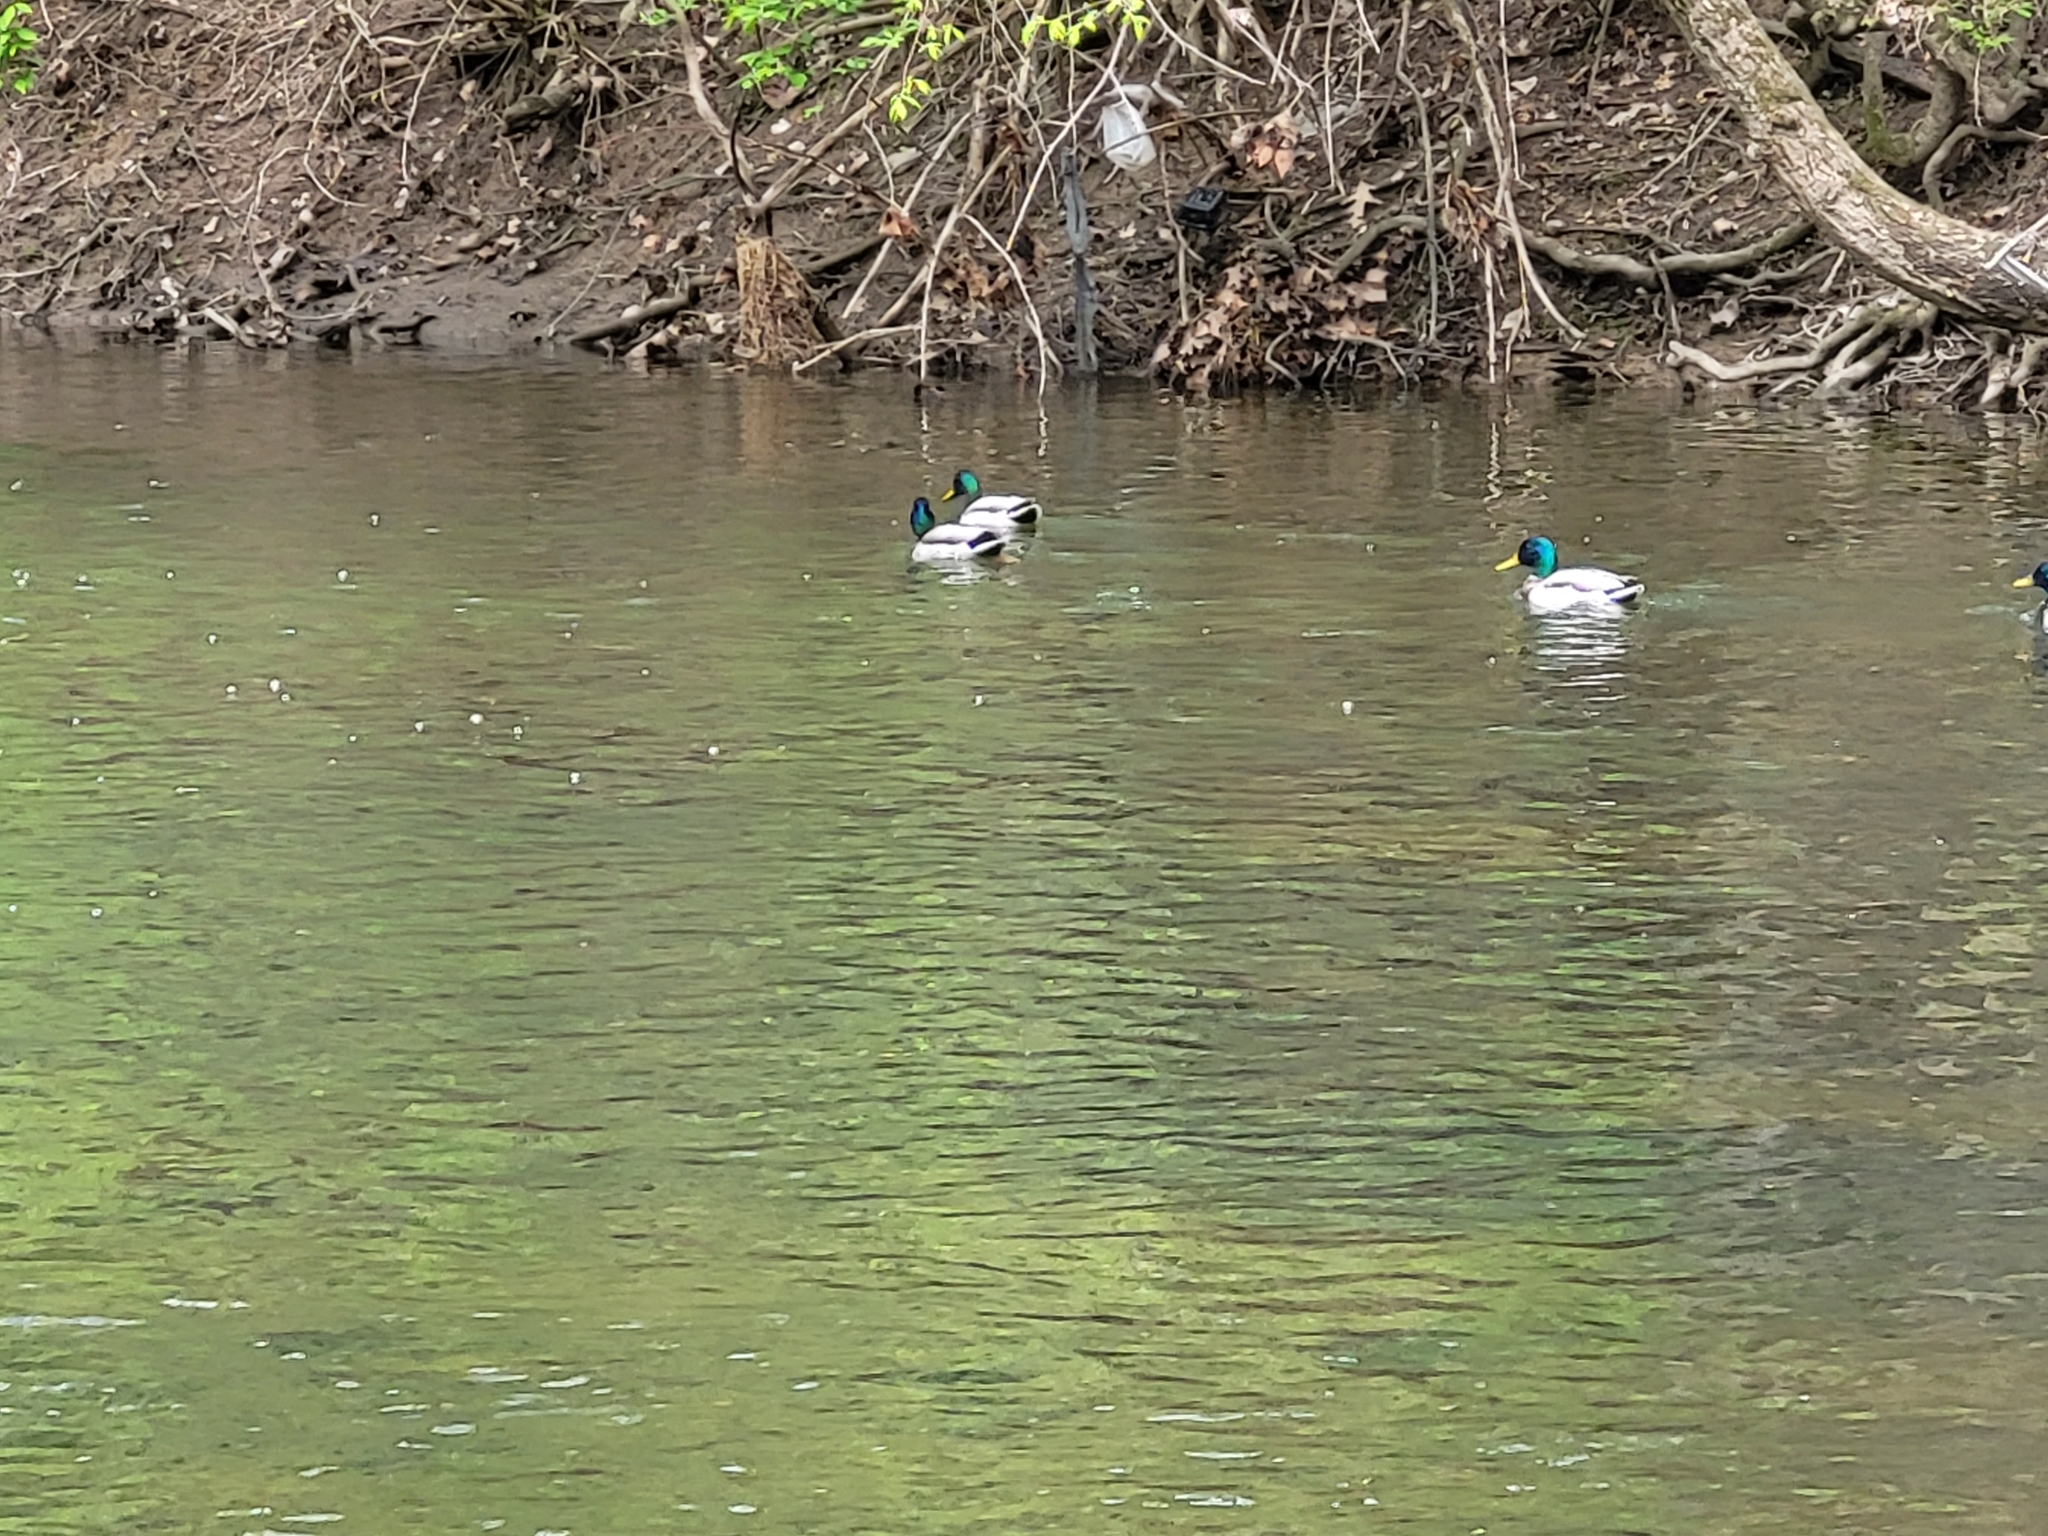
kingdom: Animalia
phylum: Chordata
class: Aves
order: Anseriformes
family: Anatidae
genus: Anas
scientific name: Anas platyrhynchos
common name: Mallard
